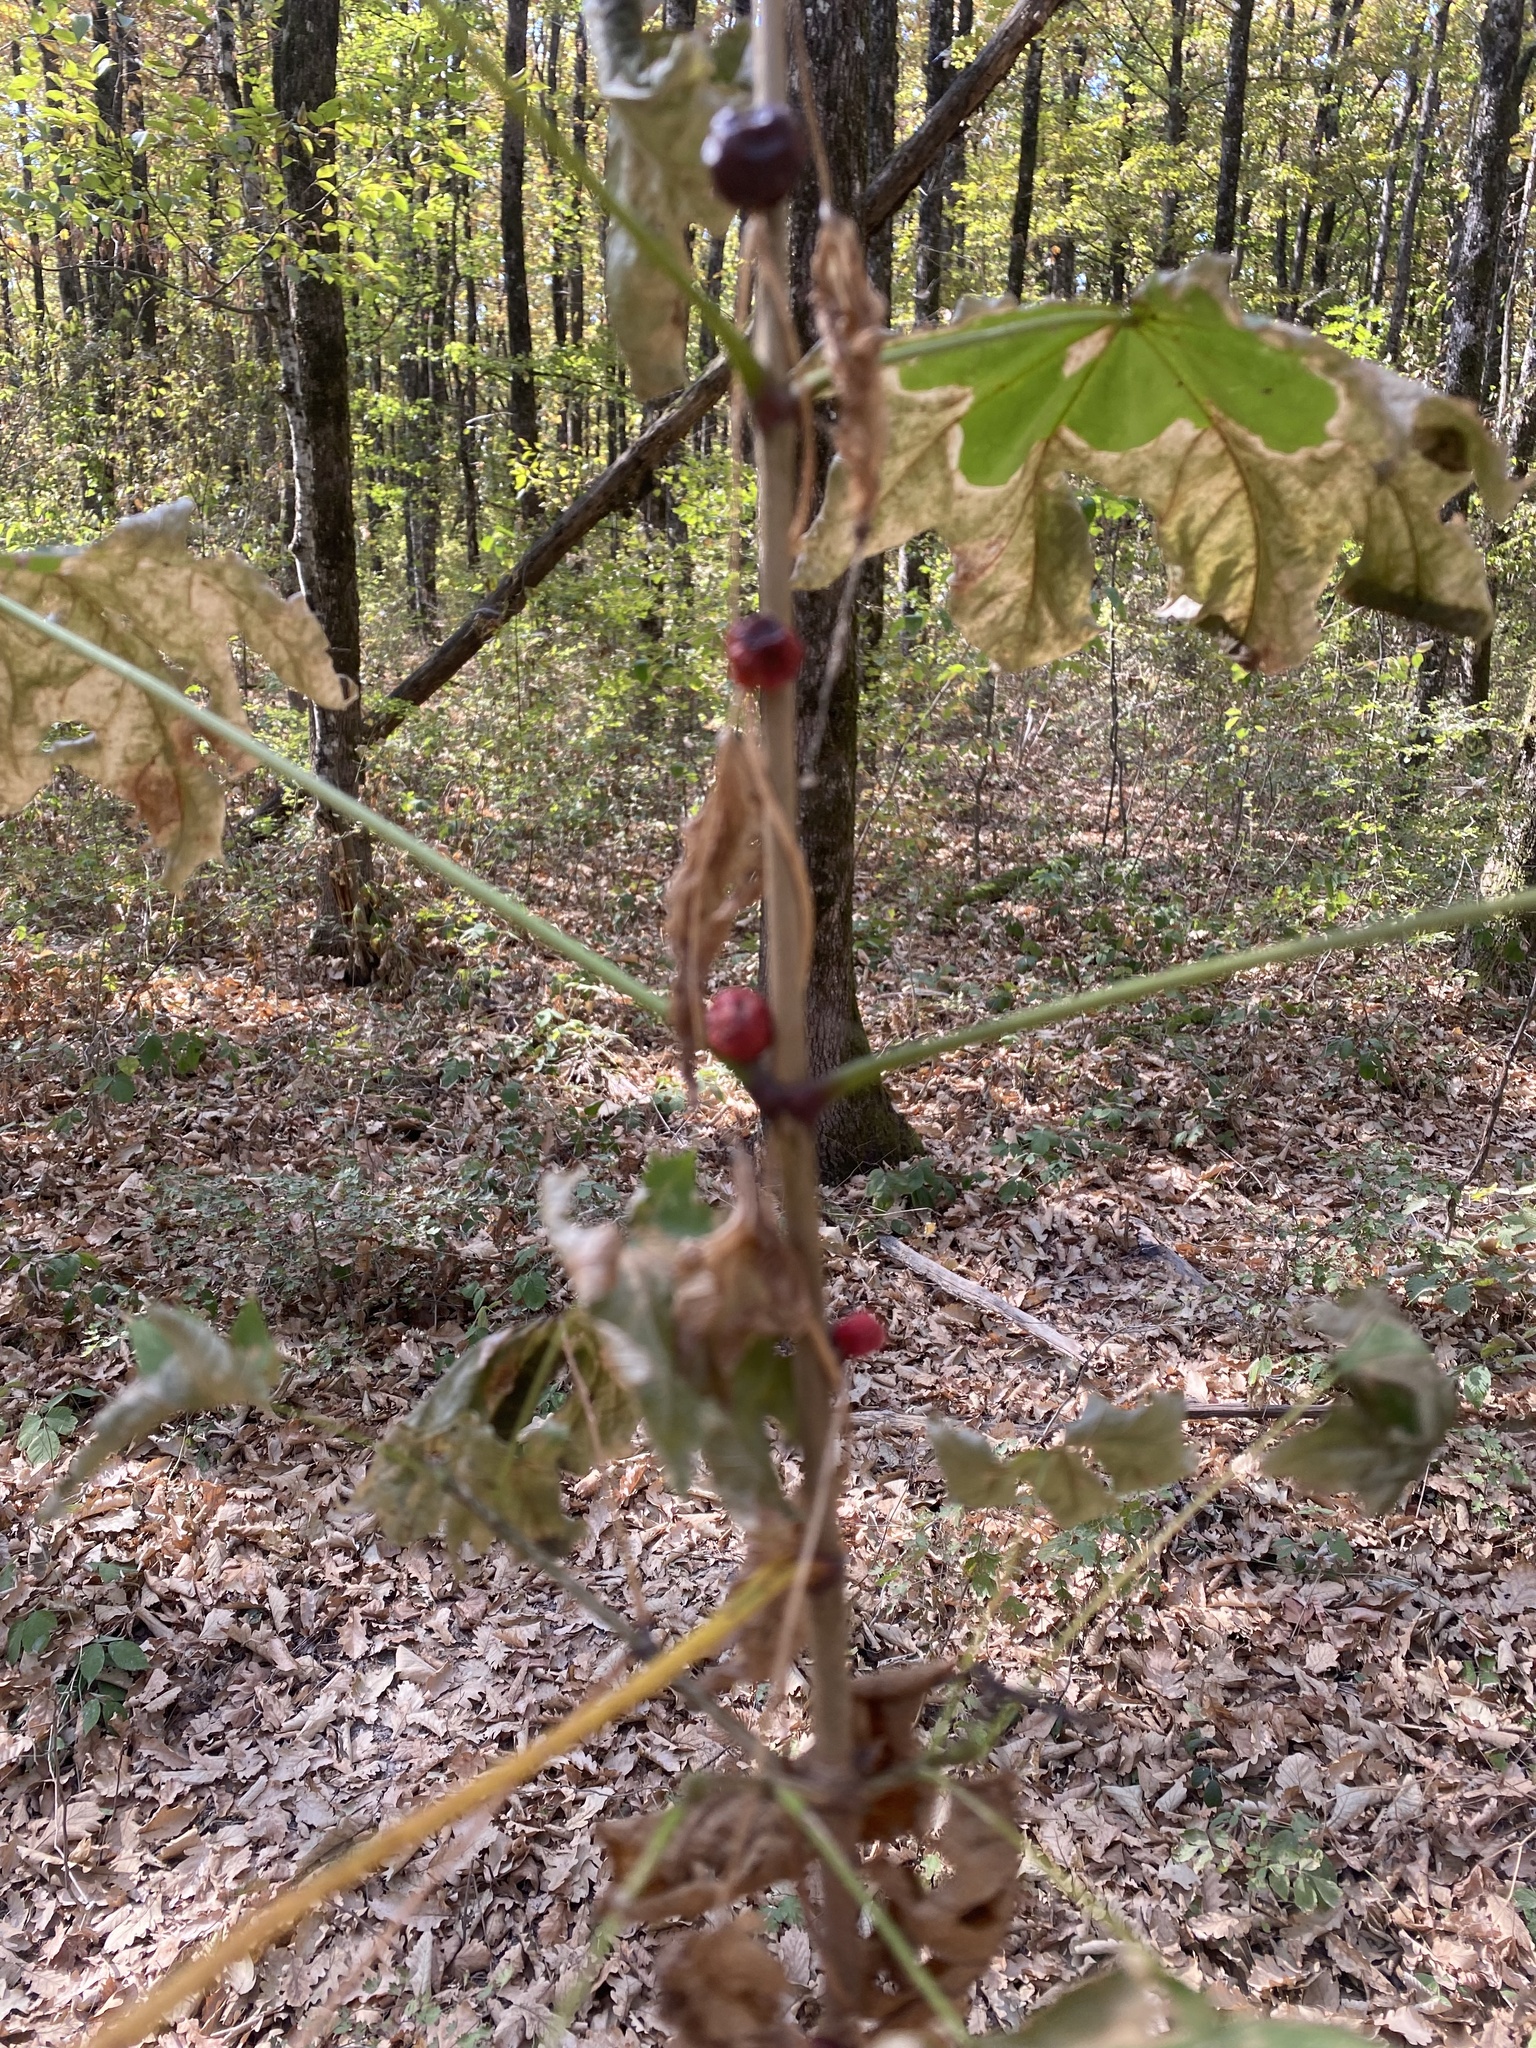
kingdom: Plantae
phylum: Tracheophyta
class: Liliopsida
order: Dioscoreales
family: Dioscoreaceae
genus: Dioscorea
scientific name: Dioscorea communis
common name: Black-bindweed
